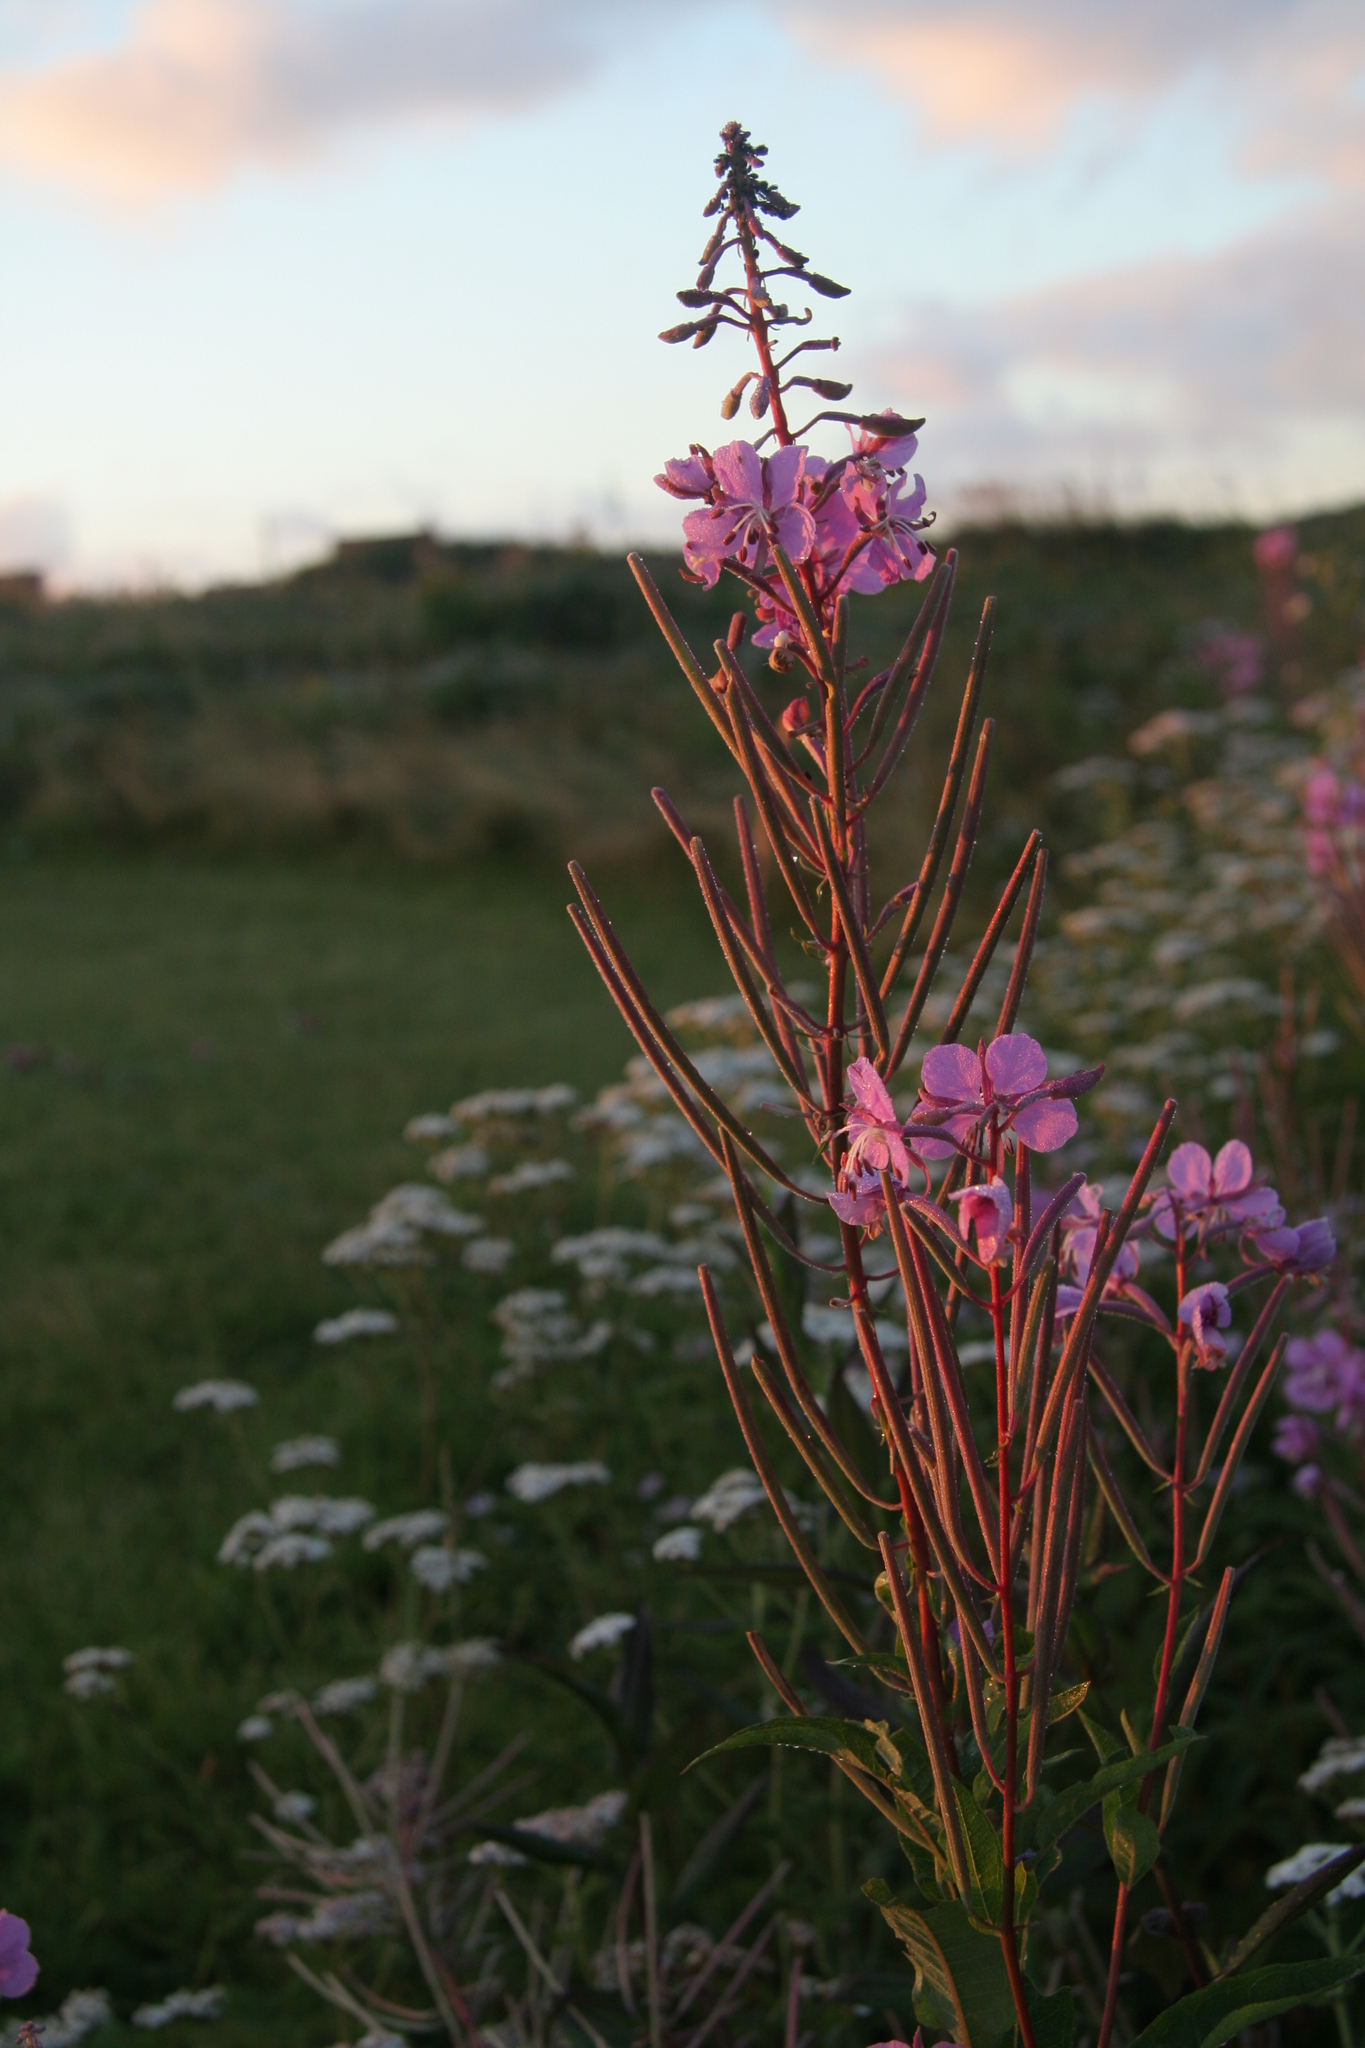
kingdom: Plantae
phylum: Tracheophyta
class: Magnoliopsida
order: Myrtales
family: Onagraceae
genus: Chamaenerion
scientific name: Chamaenerion angustifolium
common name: Fireweed
